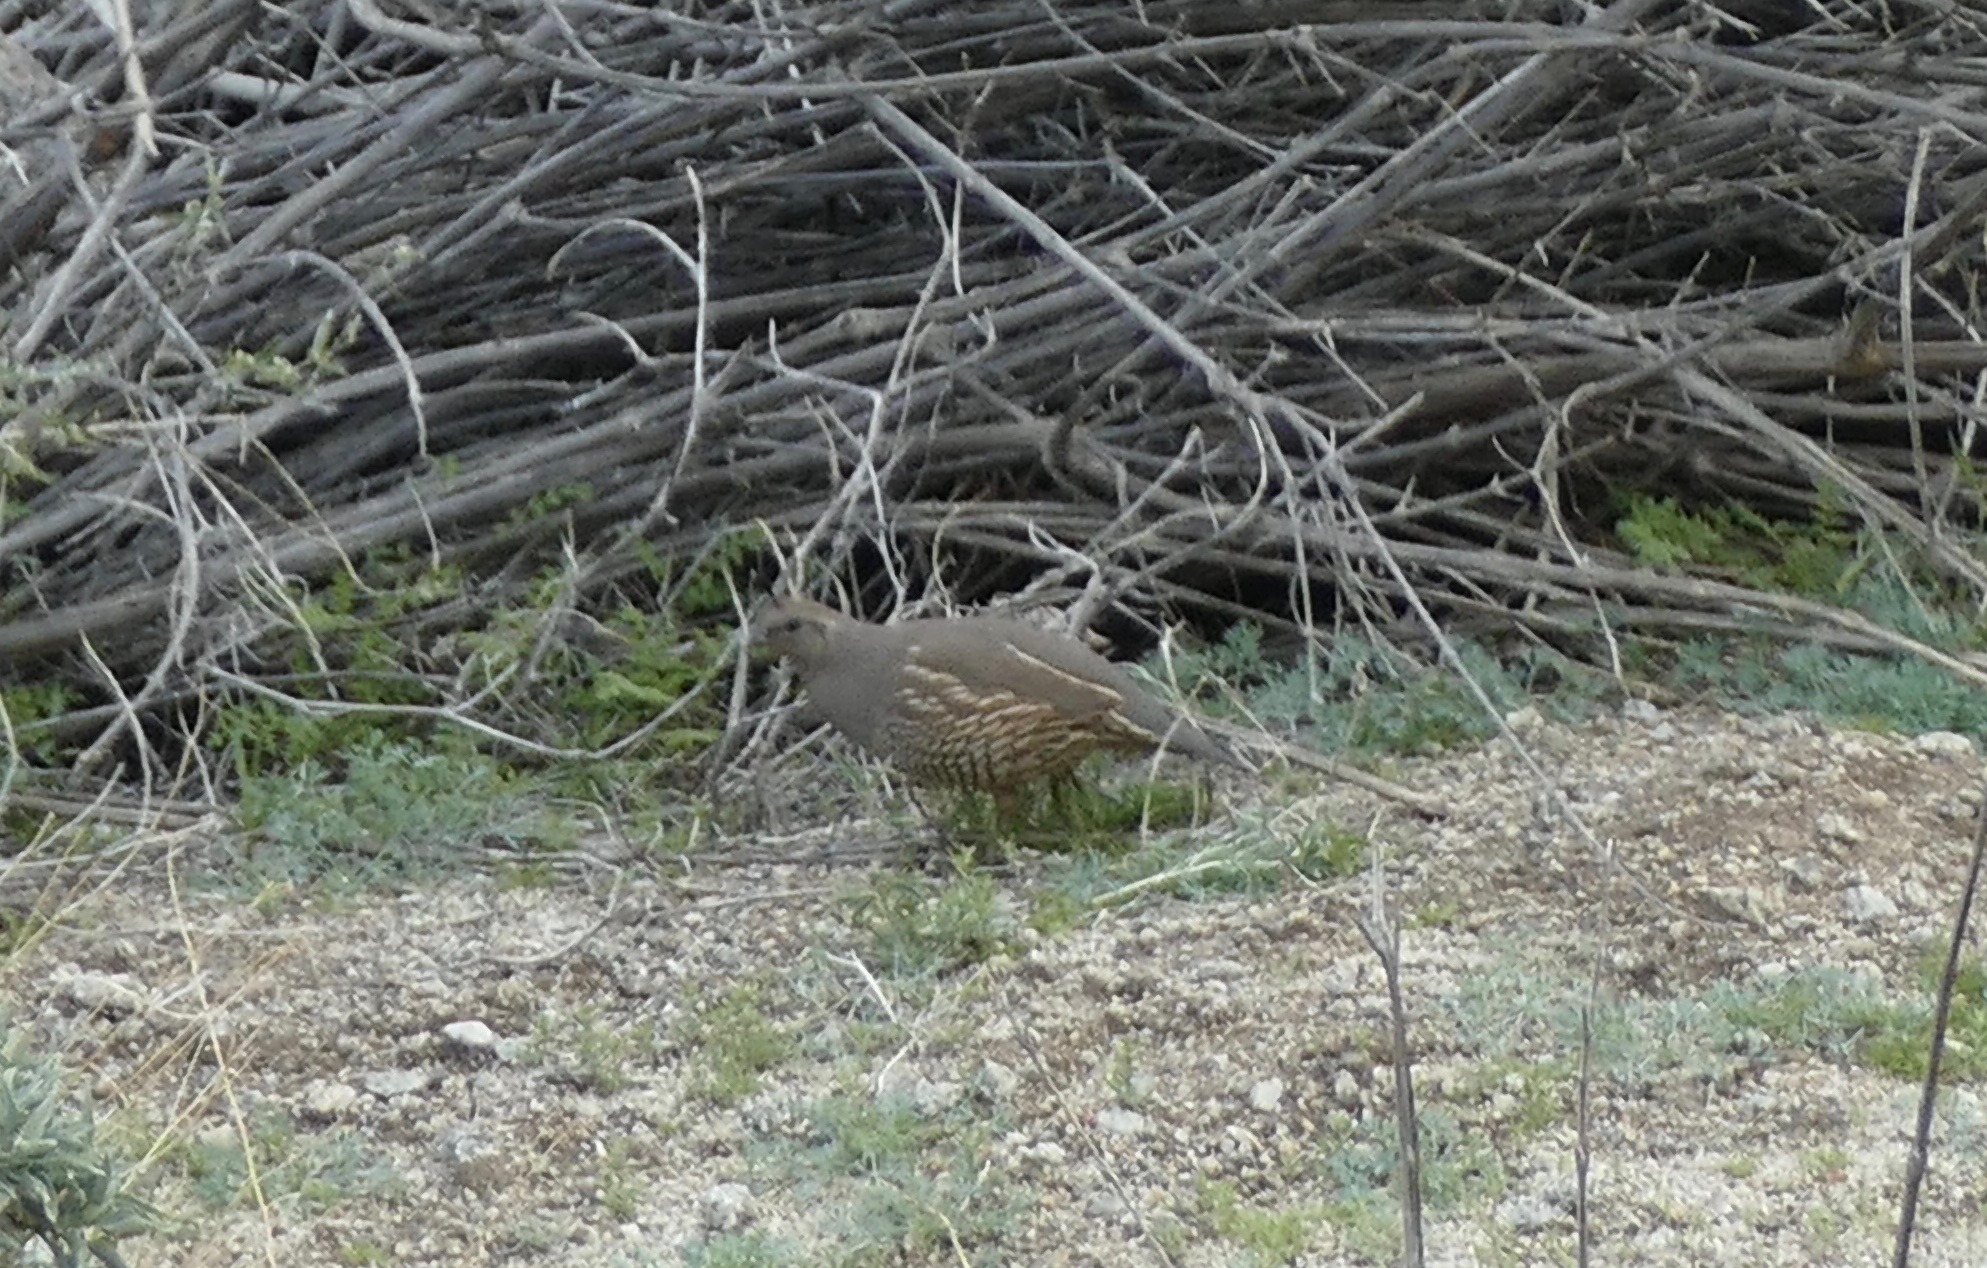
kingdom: Animalia
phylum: Chordata
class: Aves
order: Galliformes
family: Odontophoridae
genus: Callipepla
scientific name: Callipepla californica
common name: California quail
